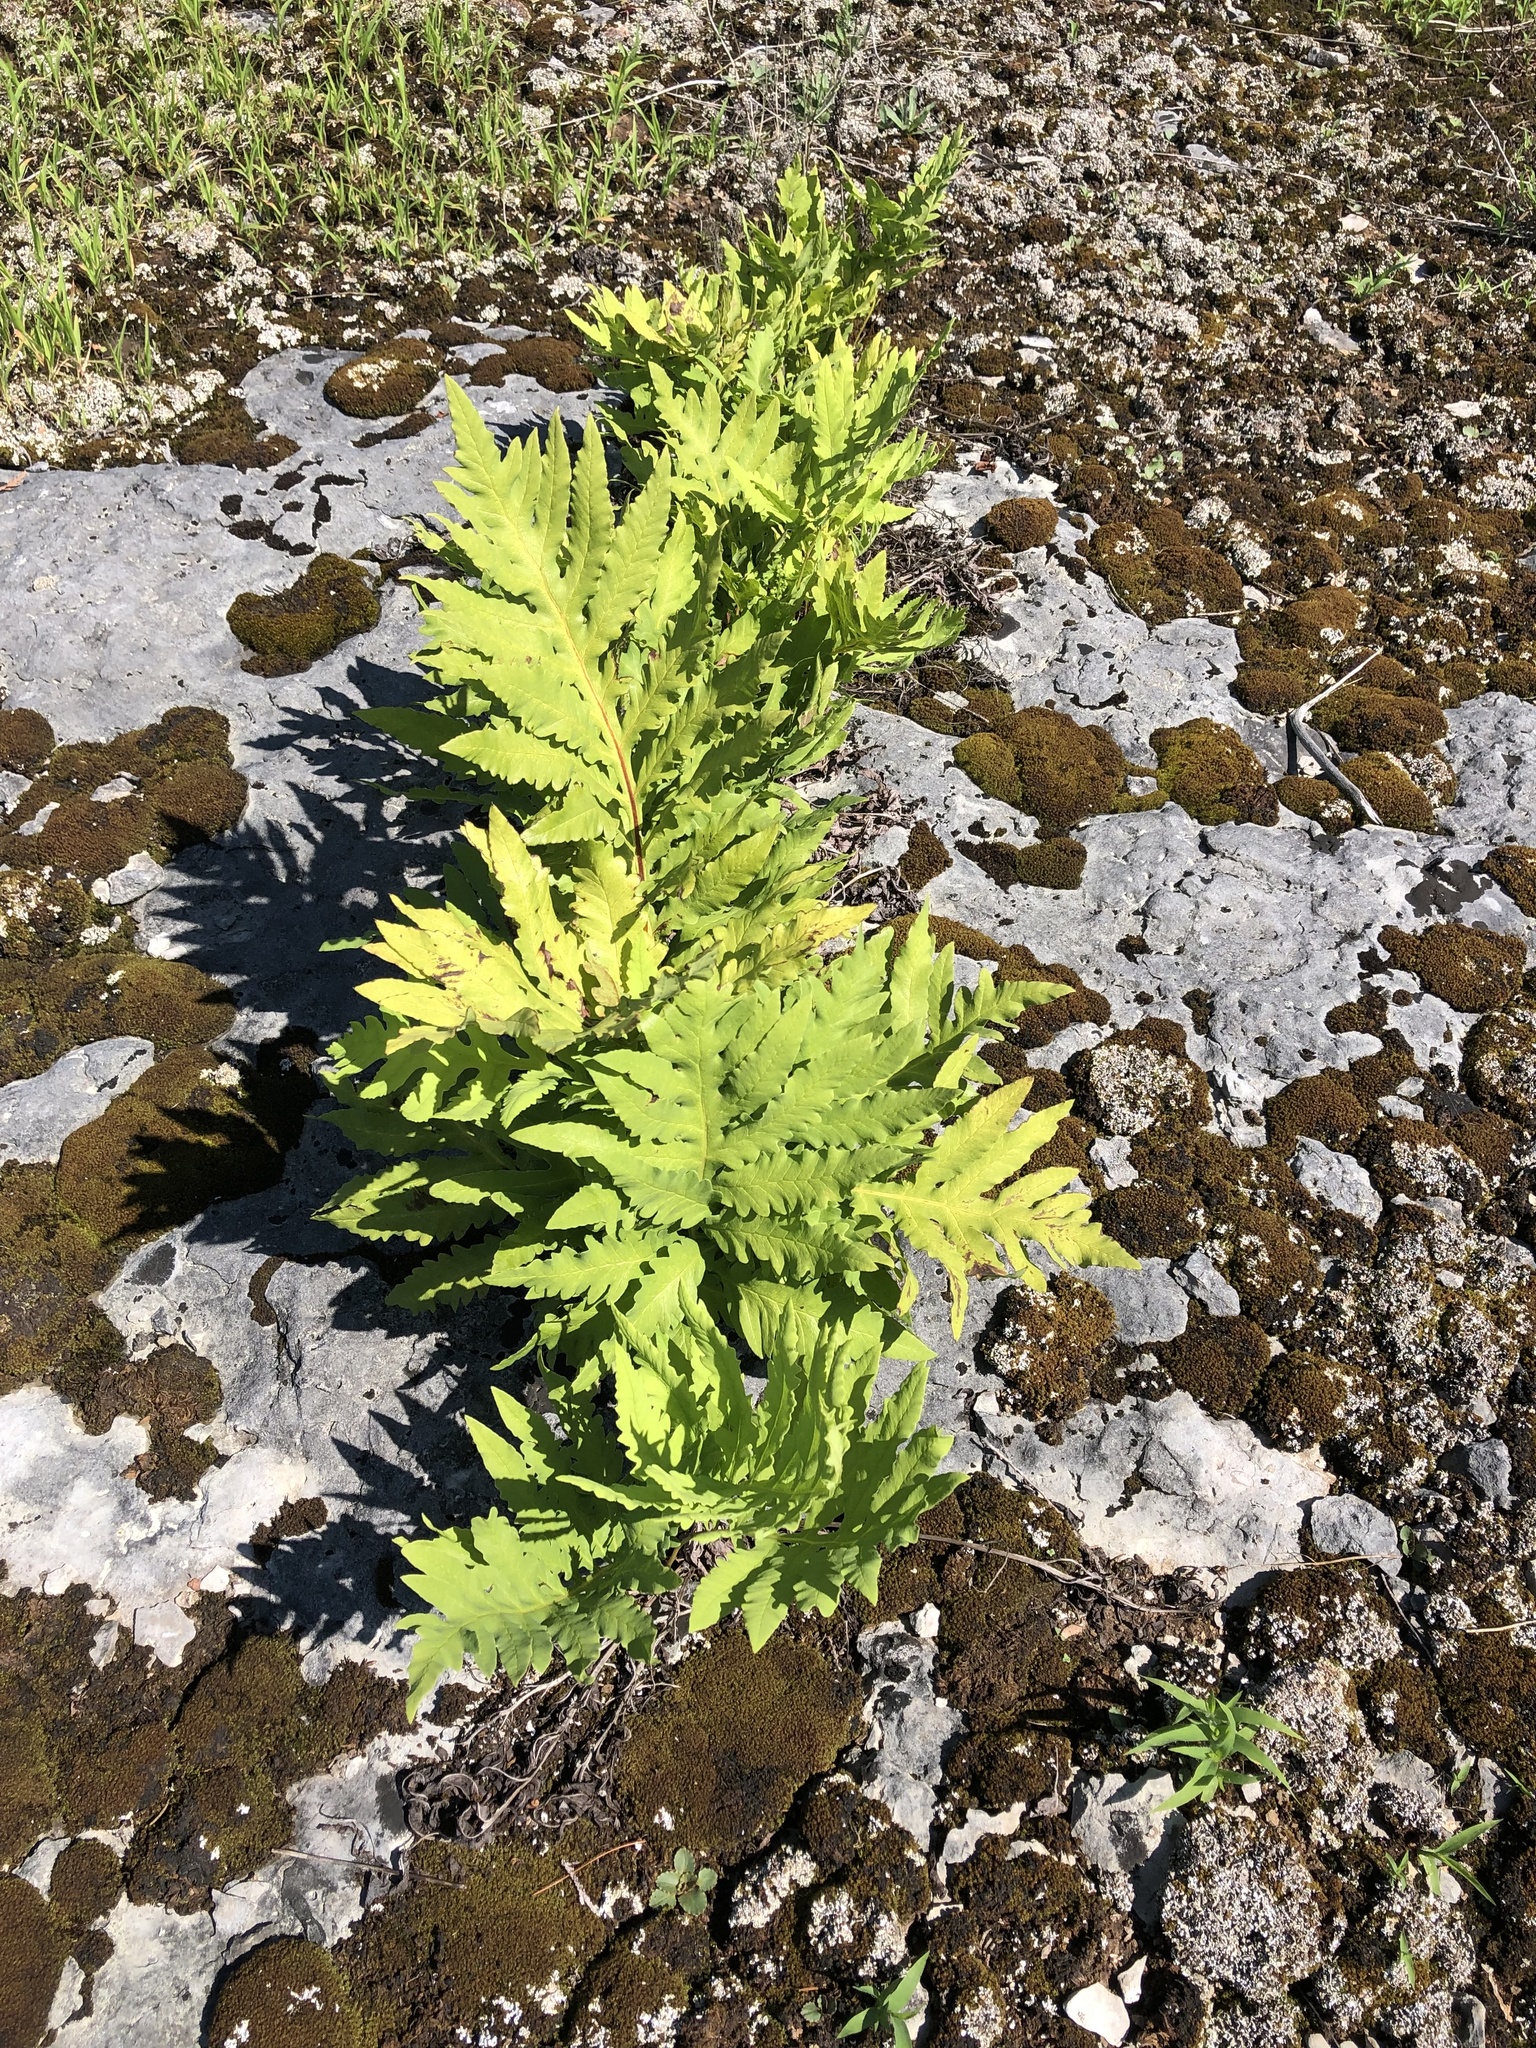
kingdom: Plantae
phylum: Tracheophyta
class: Polypodiopsida
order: Polypodiales
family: Onocleaceae
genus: Onoclea
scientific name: Onoclea sensibilis
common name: Sensitive fern
